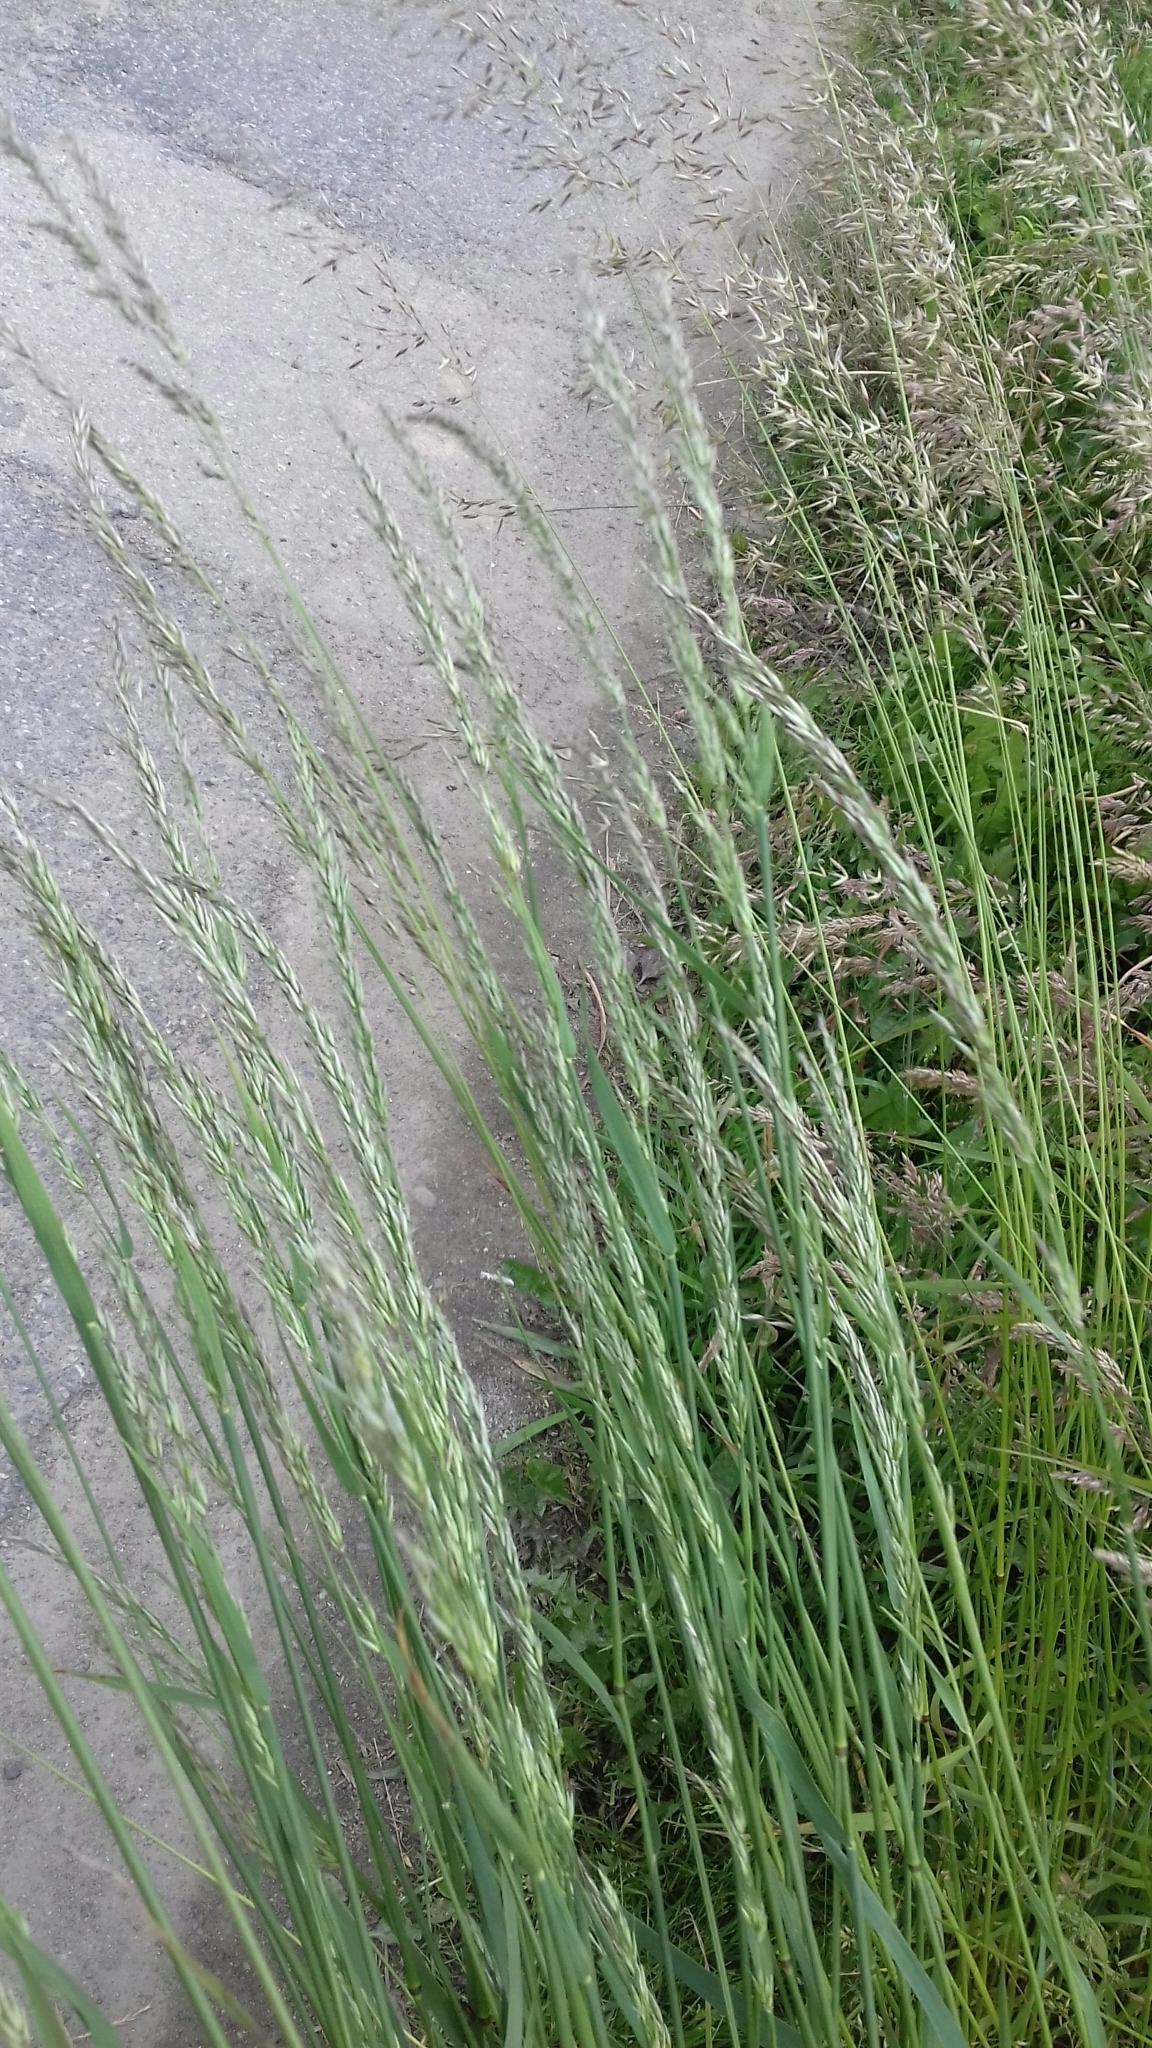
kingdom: Plantae
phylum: Tracheophyta
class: Liliopsida
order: Poales
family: Poaceae
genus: Arrhenatherum
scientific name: Arrhenatherum elatius
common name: Tall oatgrass
